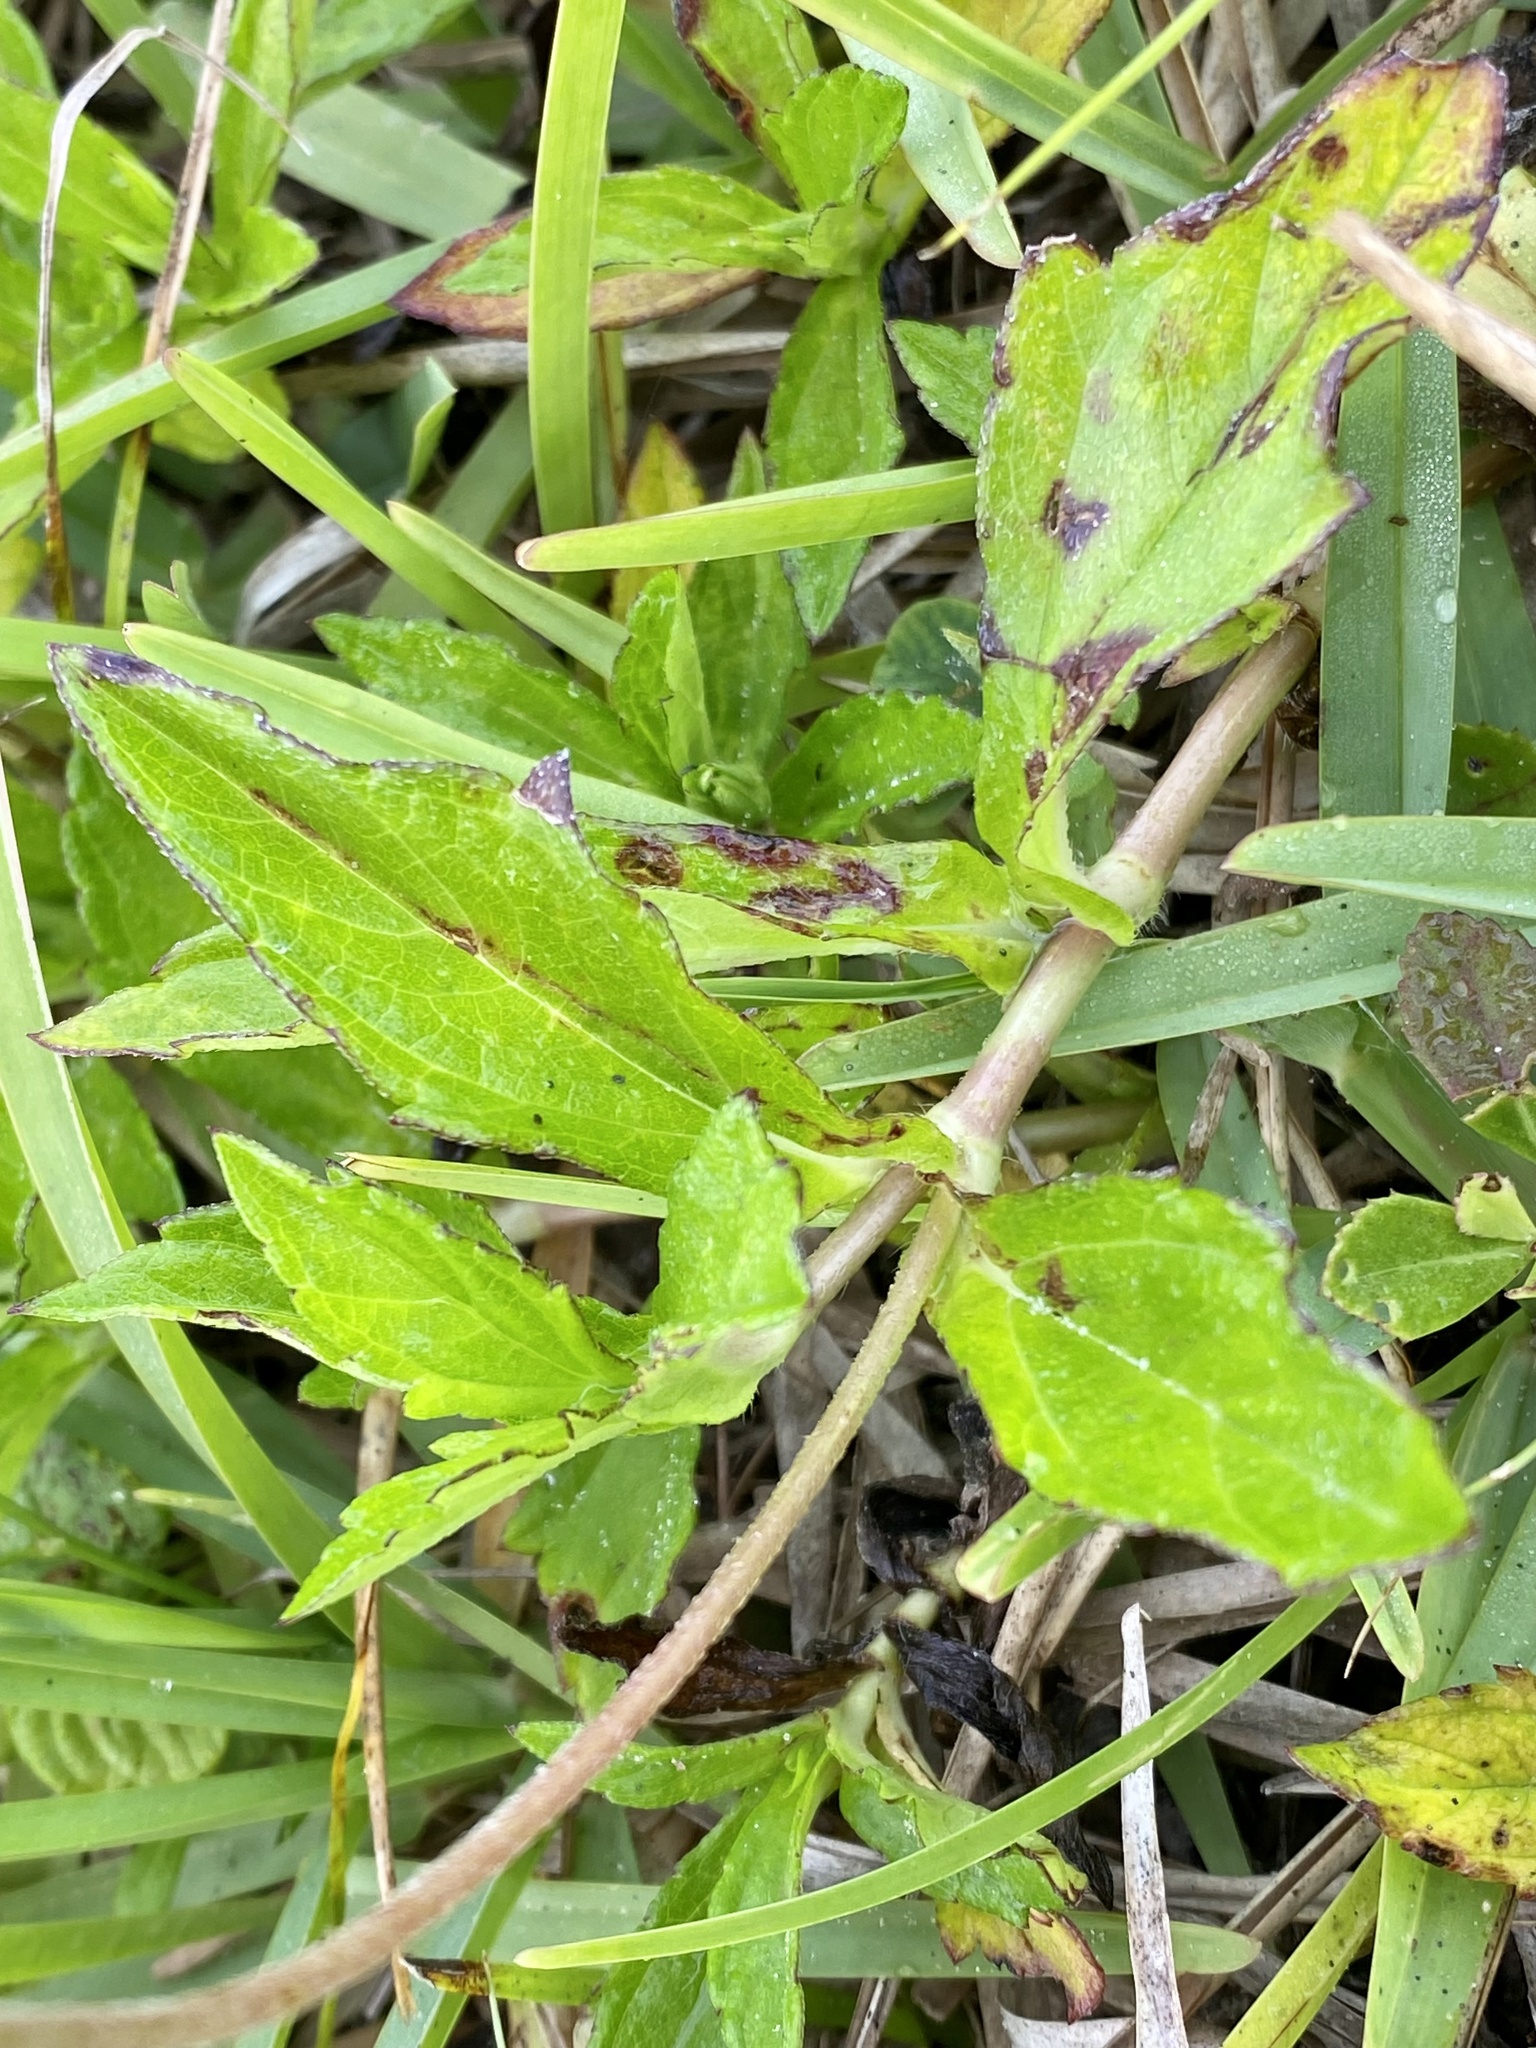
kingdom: Plantae
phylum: Tracheophyta
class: Magnoliopsida
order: Asterales
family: Asteraceae
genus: Sphagneticola
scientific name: Sphagneticola trilobata
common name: Bay biscayne creeping-oxeye
